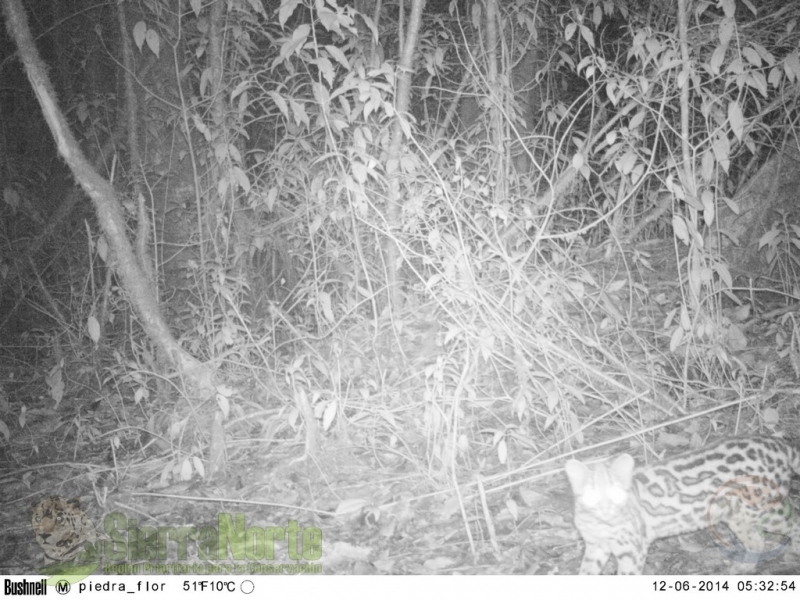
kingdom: Animalia
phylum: Chordata
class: Mammalia
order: Carnivora
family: Felidae
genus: Leopardus
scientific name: Leopardus wiedii
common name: Margay
